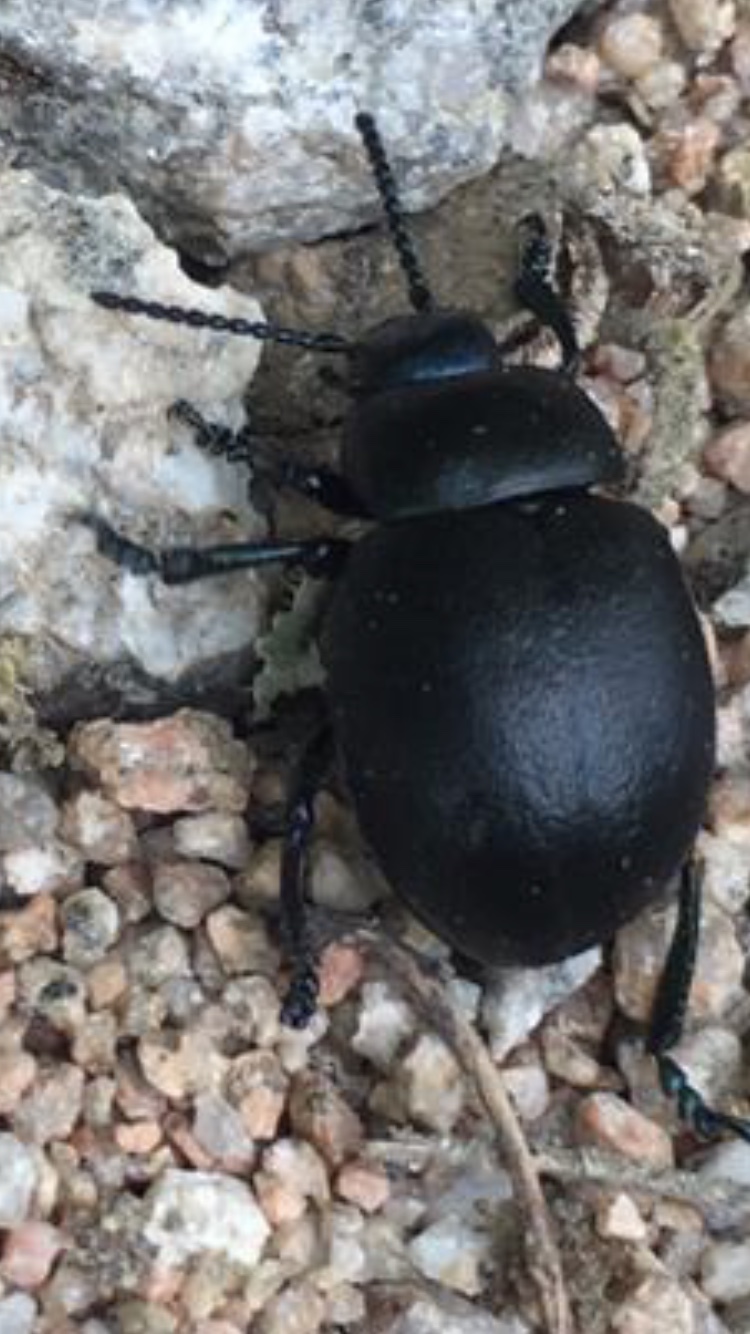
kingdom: Animalia
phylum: Arthropoda
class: Insecta
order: Coleoptera
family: Chrysomelidae
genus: Timarcha
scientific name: Timarcha goettingensis
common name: Small bloody-nosed beetle
